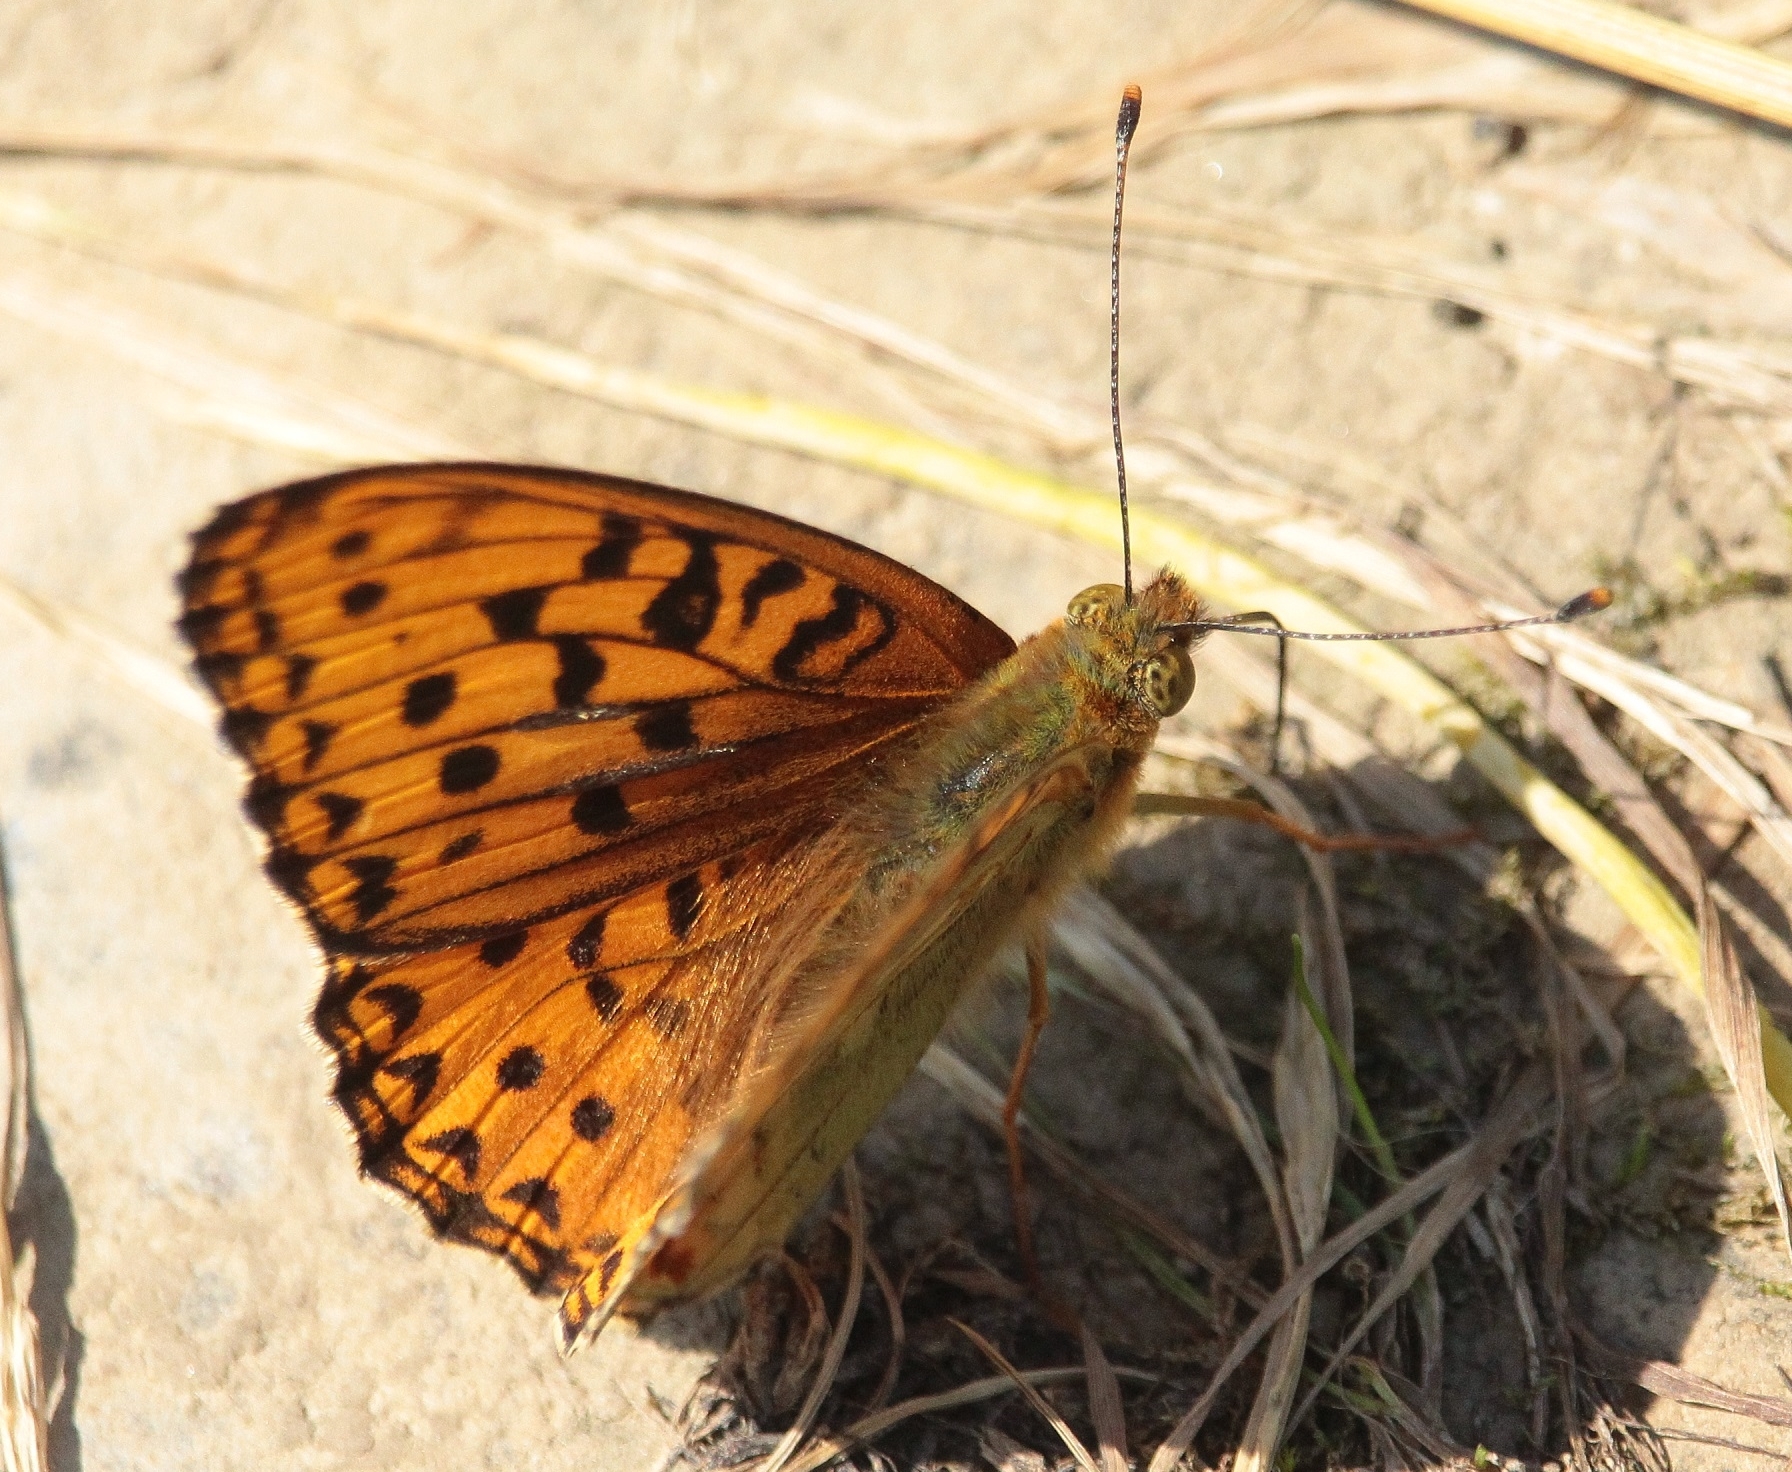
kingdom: Animalia
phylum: Arthropoda
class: Insecta
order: Lepidoptera
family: Nymphalidae
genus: Fabriciana
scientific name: Fabriciana adippe
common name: High brown fritillary
